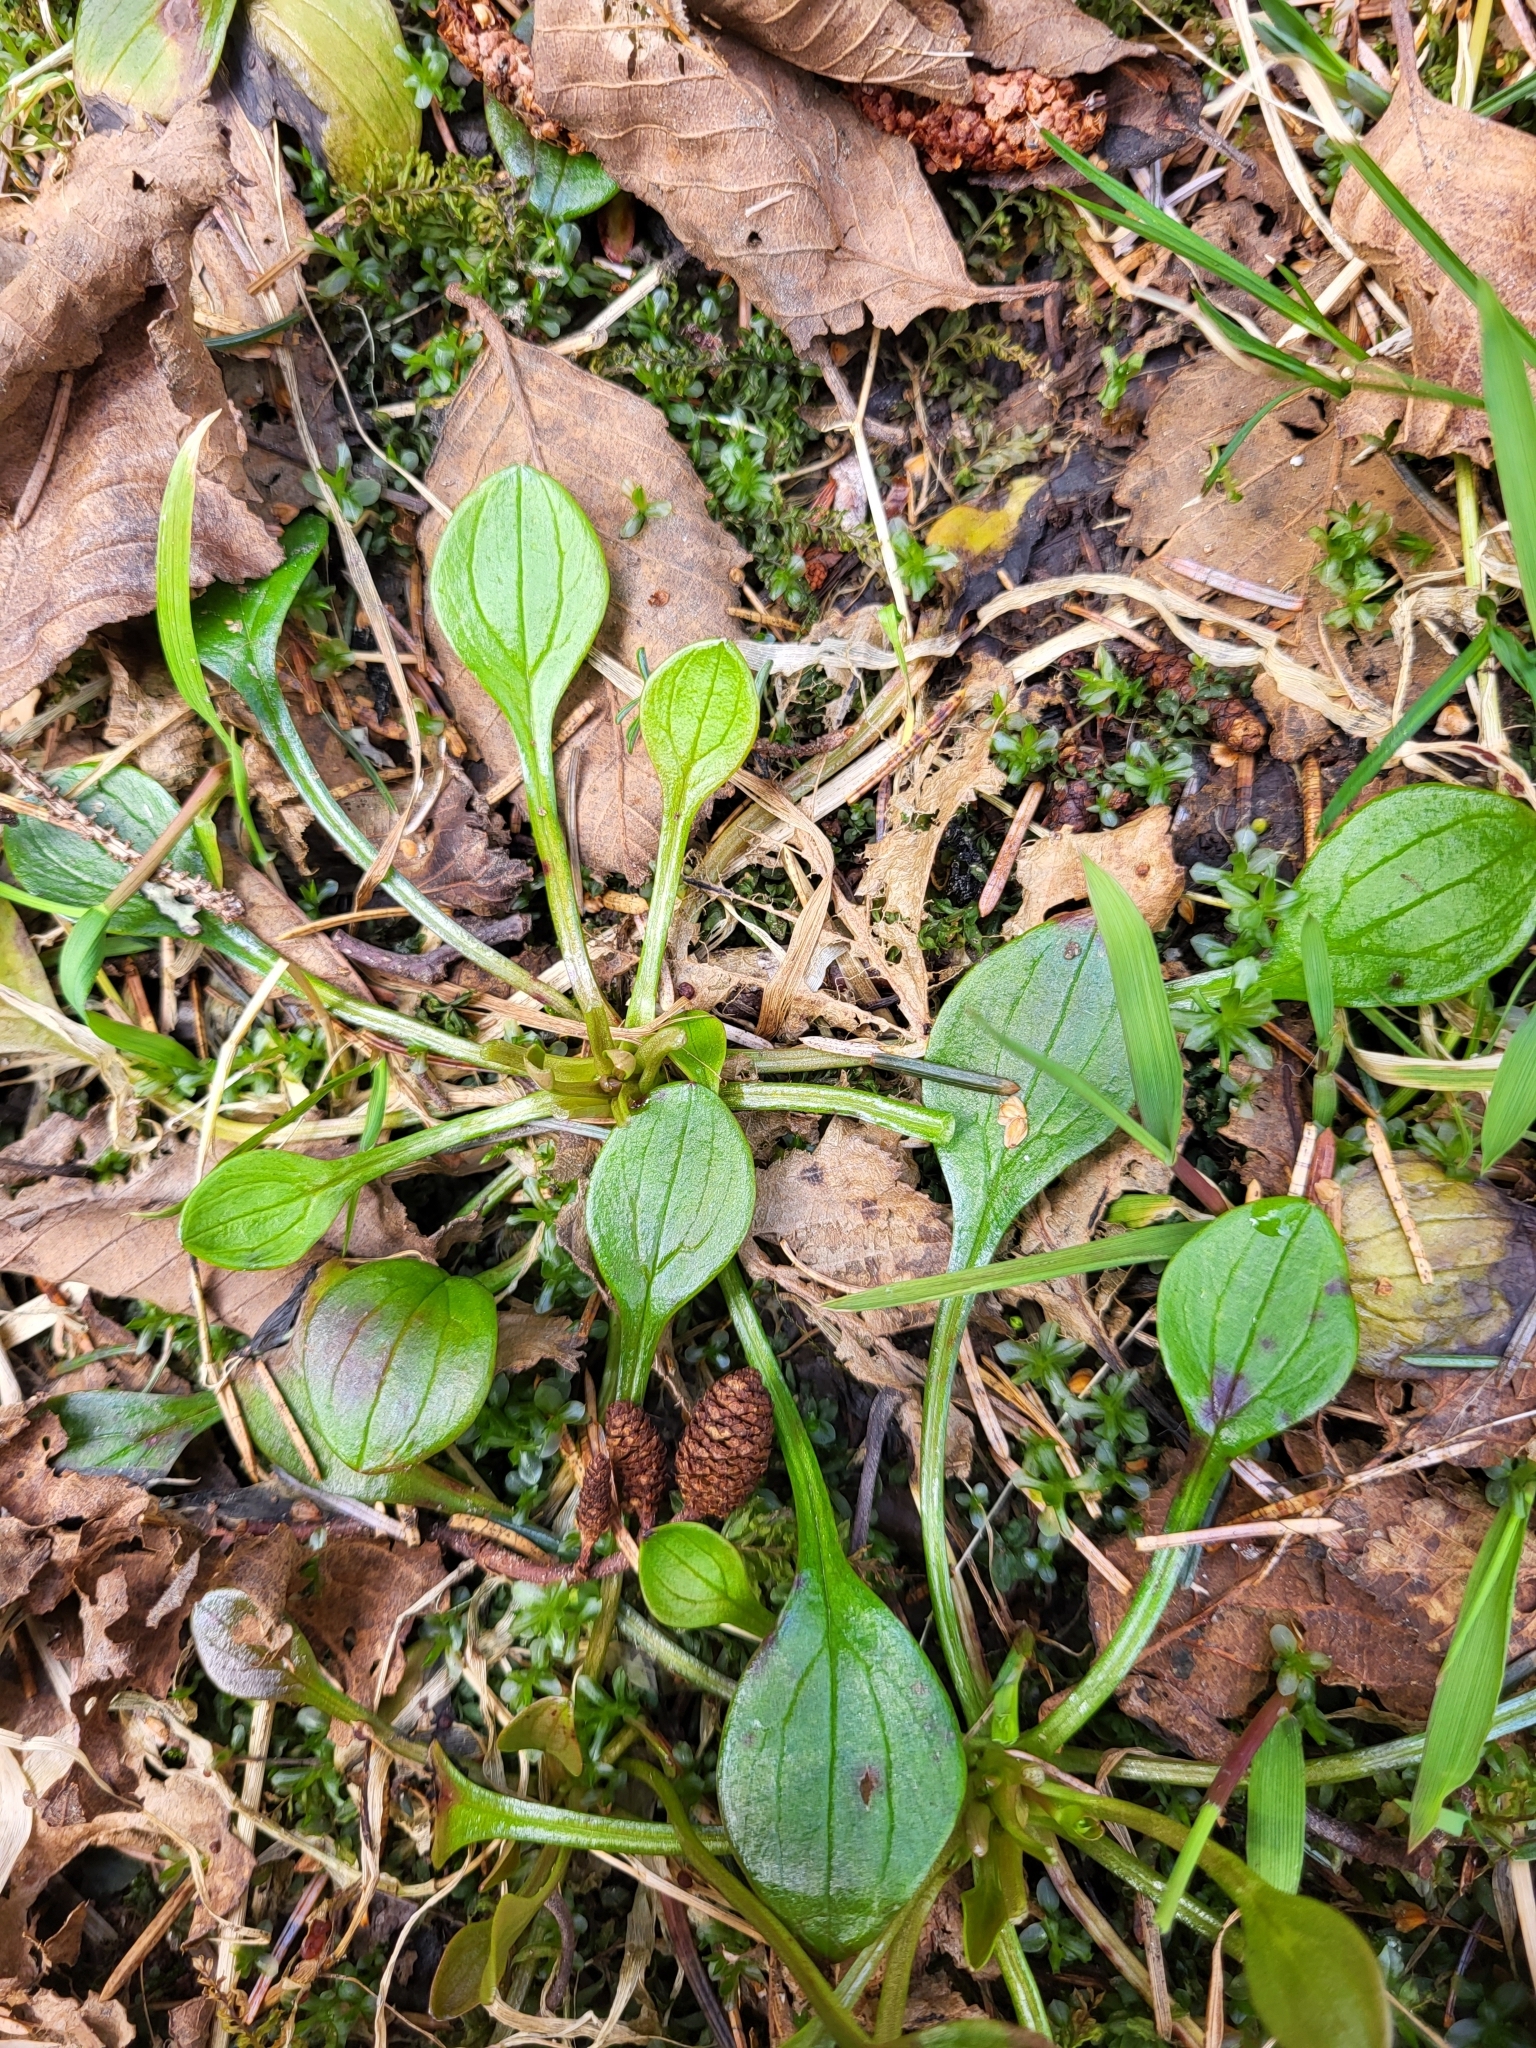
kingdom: Plantae
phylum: Tracheophyta
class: Magnoliopsida
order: Caryophyllales
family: Montiaceae
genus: Claytonia
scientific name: Claytonia sibirica
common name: Pink purslane
